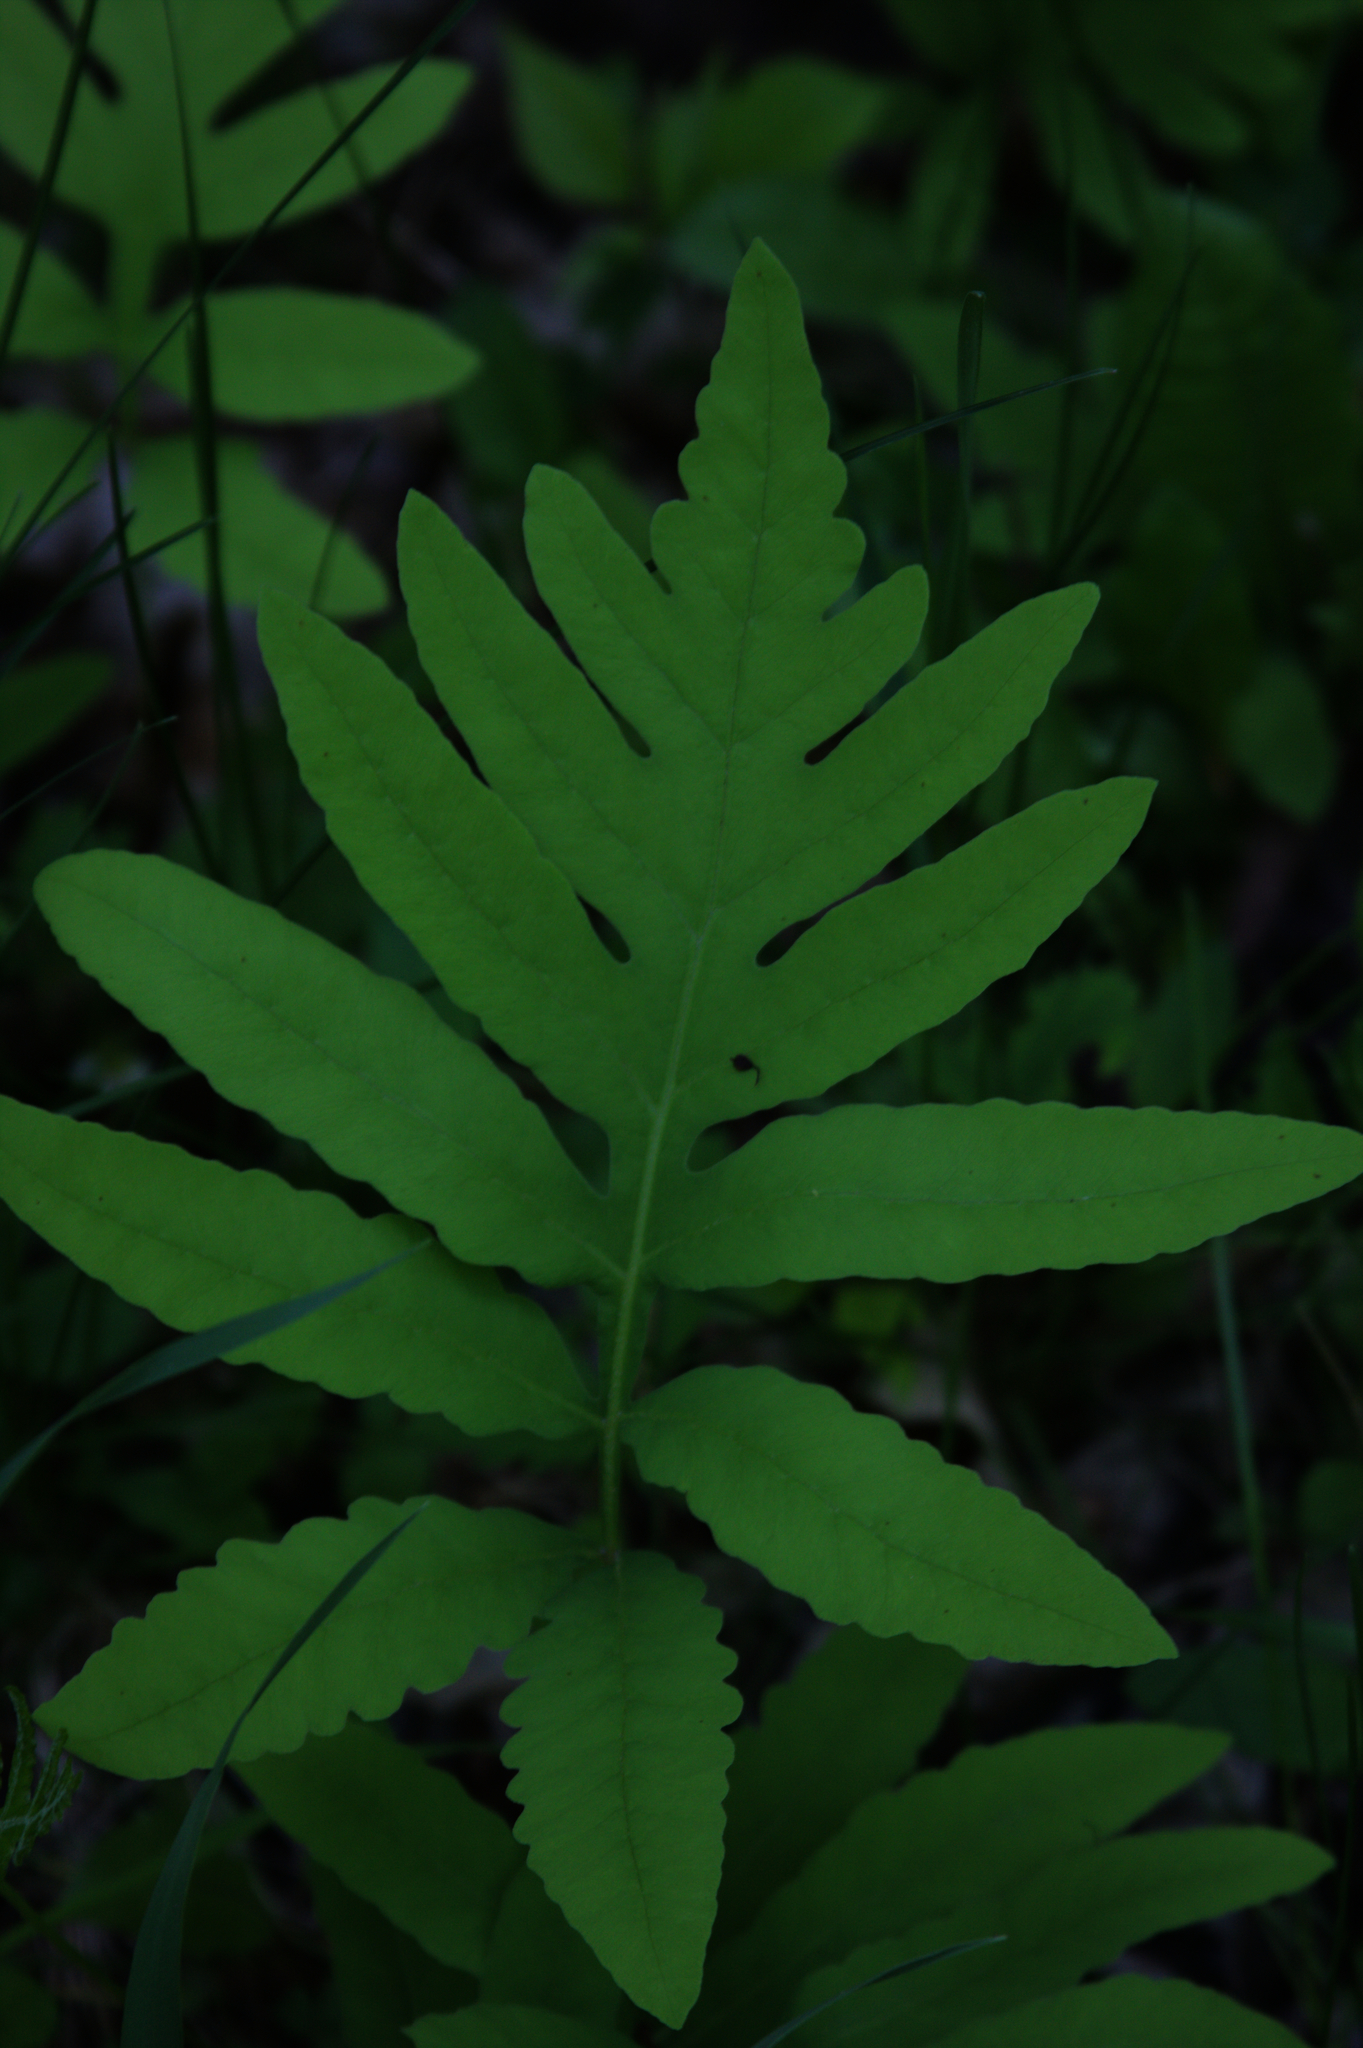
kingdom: Plantae
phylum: Tracheophyta
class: Polypodiopsida
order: Polypodiales
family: Onocleaceae
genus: Onoclea
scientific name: Onoclea sensibilis
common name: Sensitive fern
